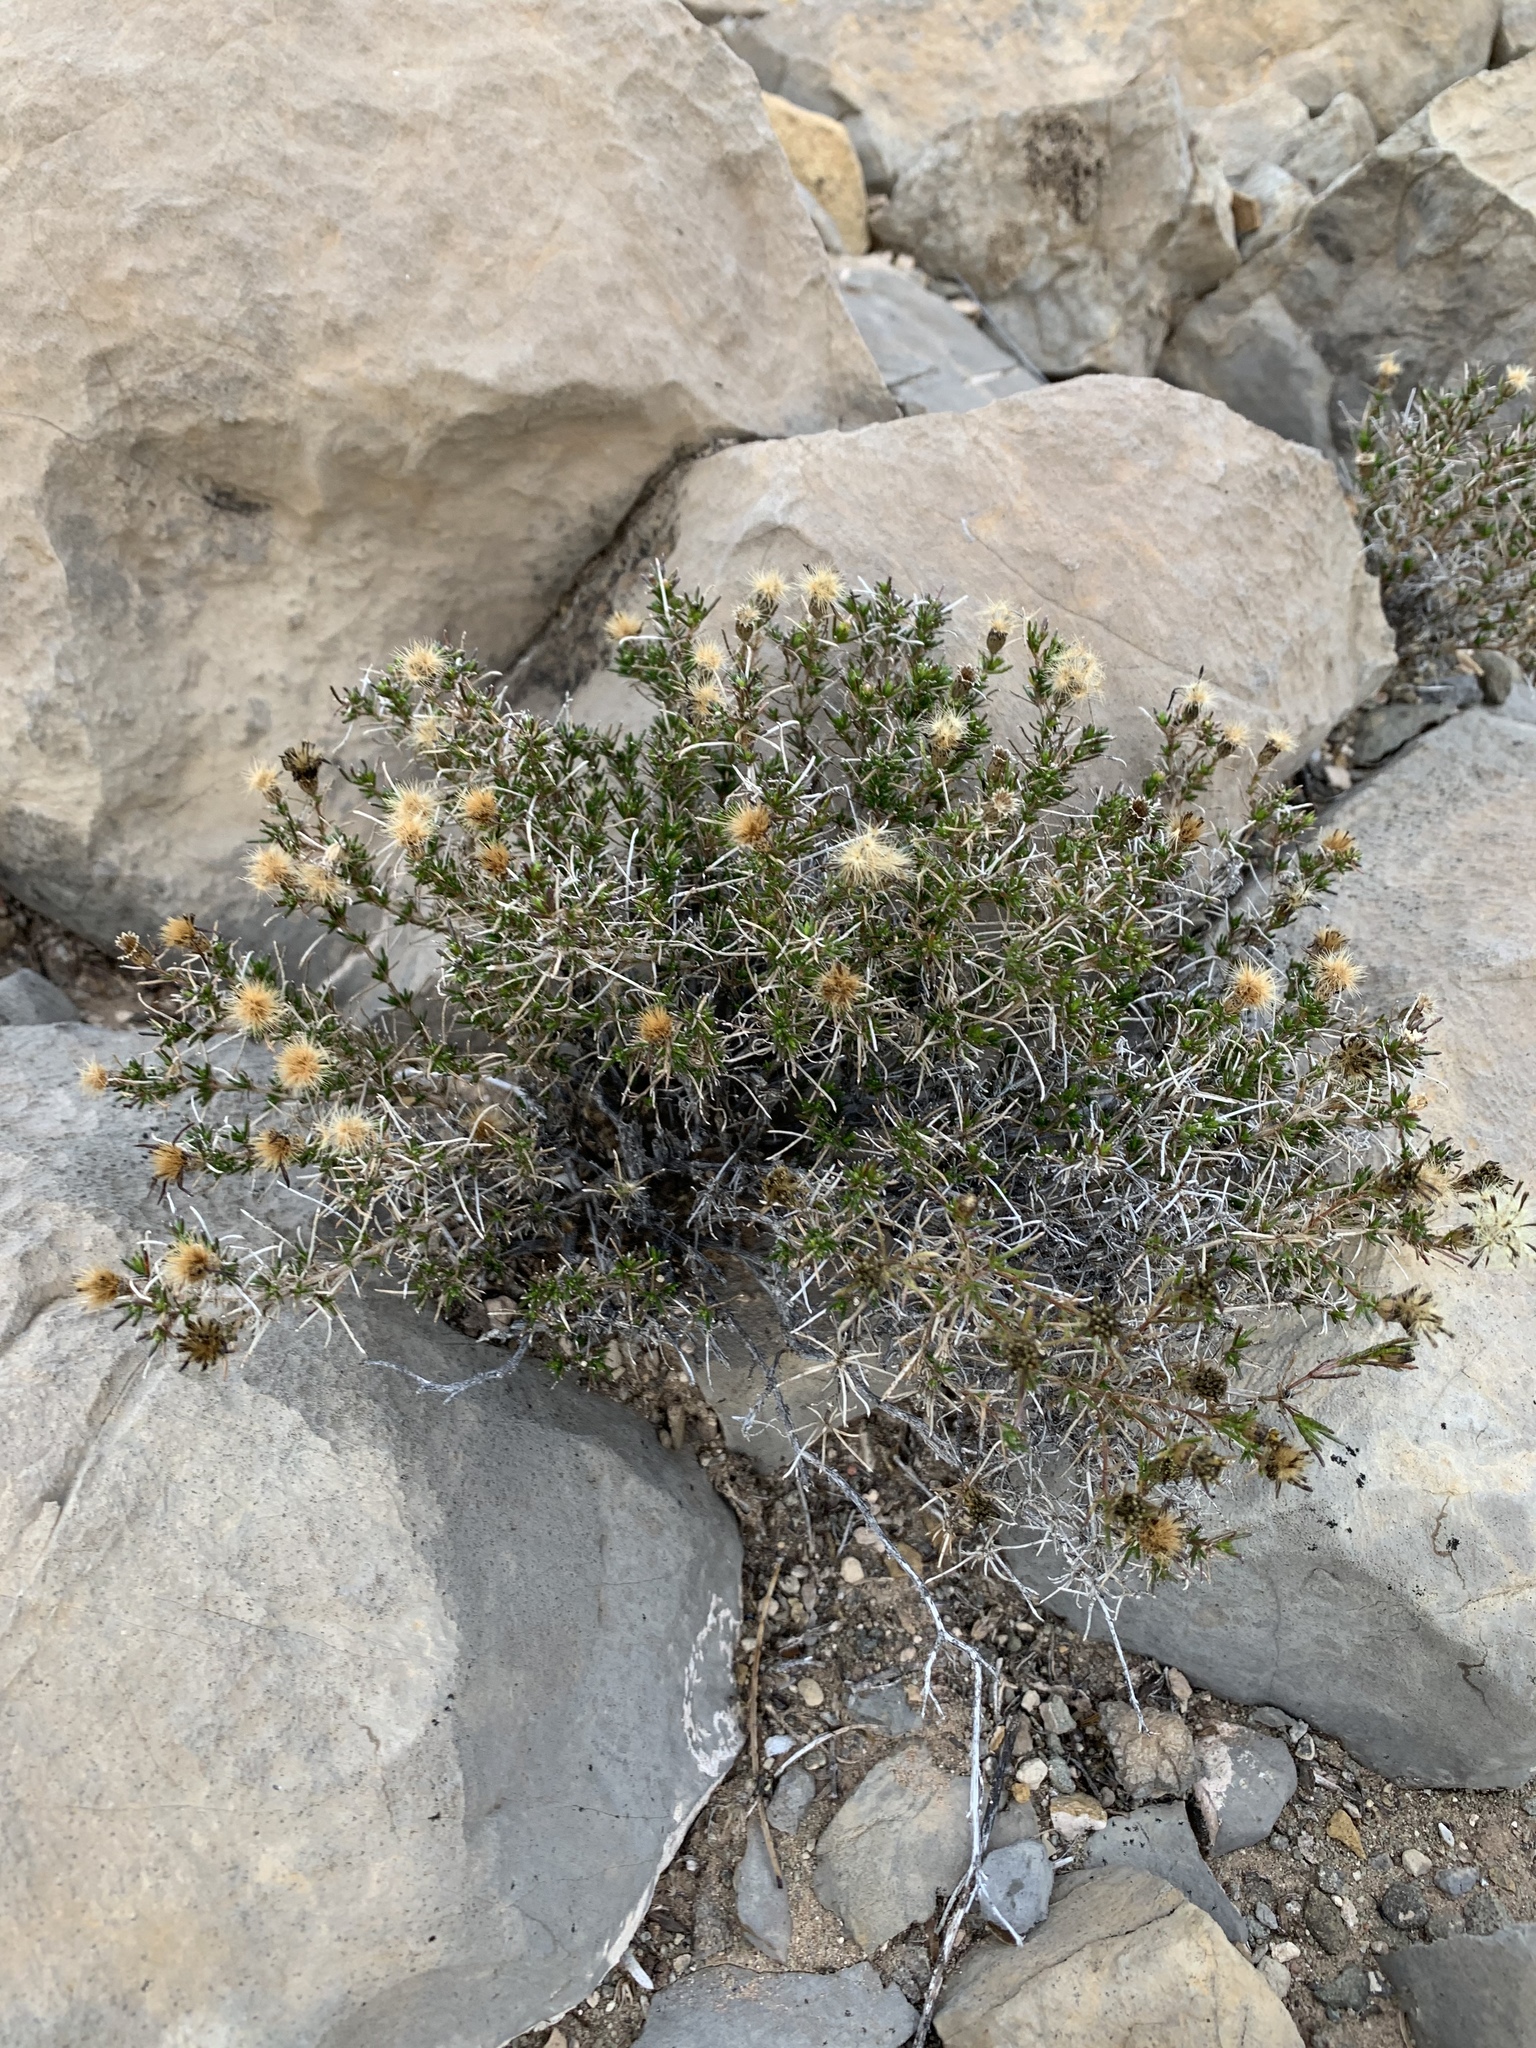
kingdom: Plantae
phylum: Tracheophyta
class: Magnoliopsida
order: Asterales
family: Asteraceae
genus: Thymophylla
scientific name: Thymophylla acerosa
